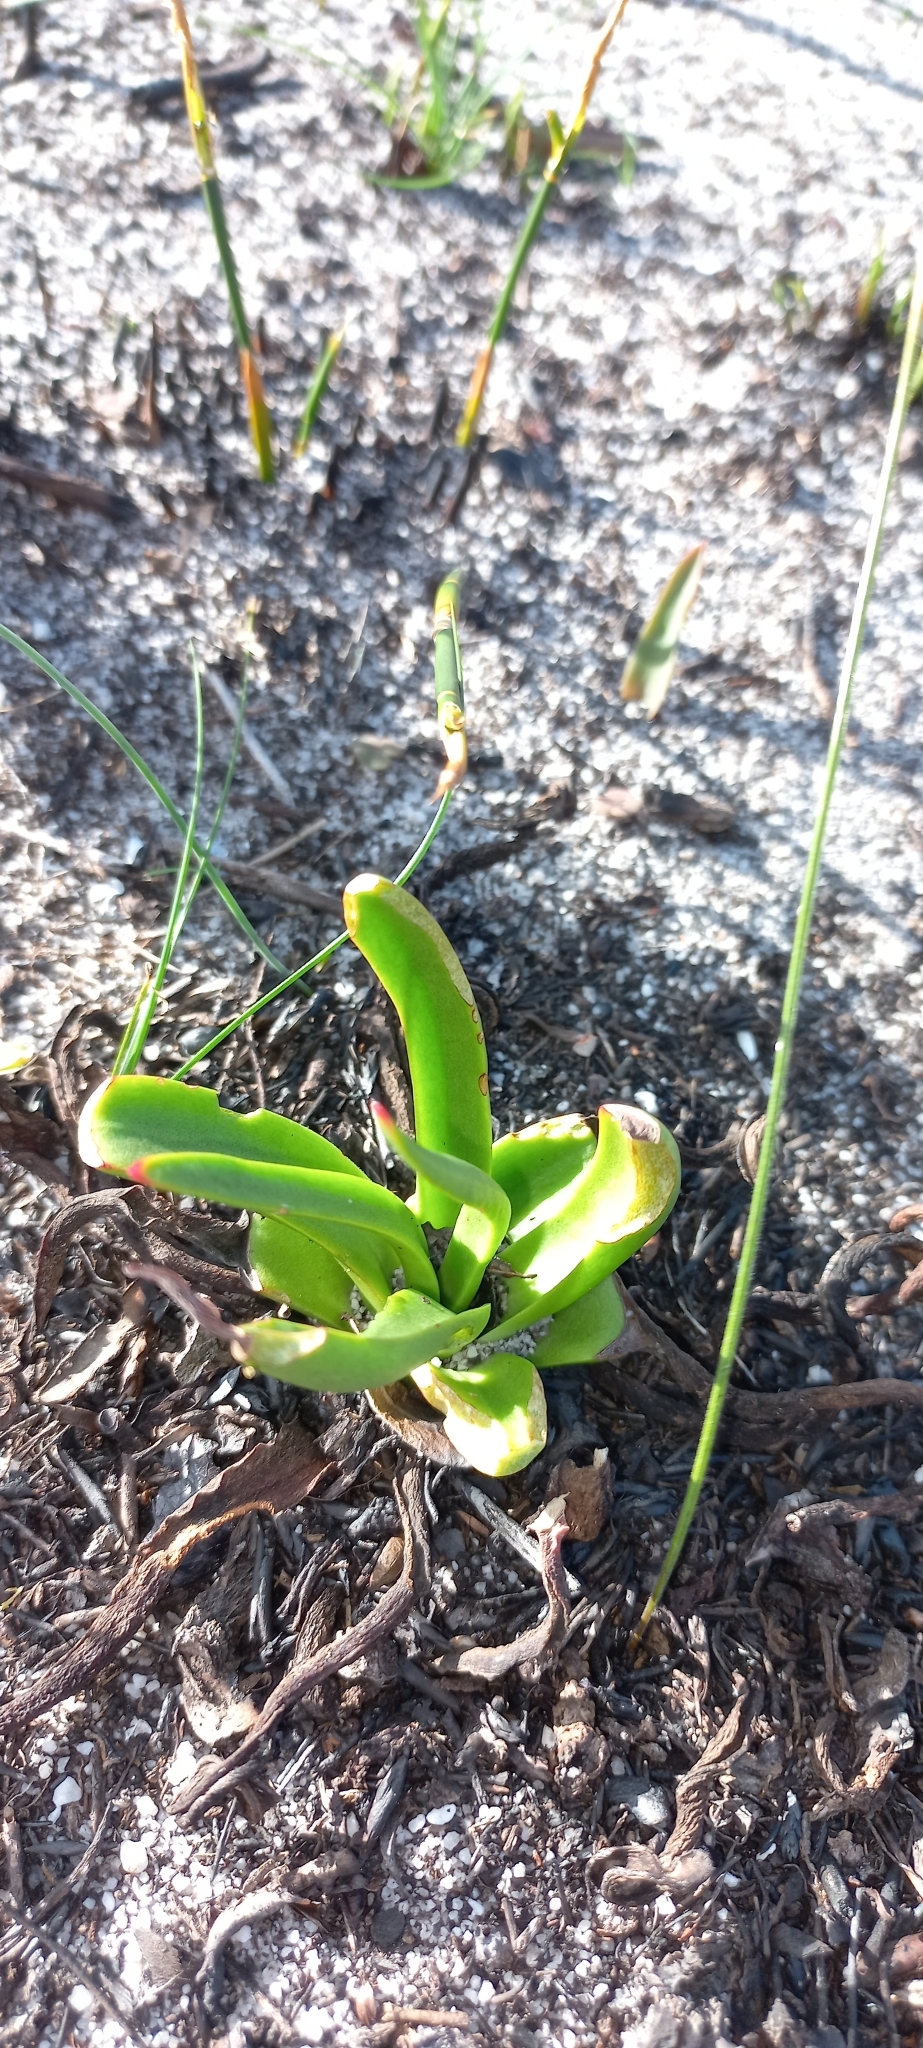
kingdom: Plantae
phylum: Tracheophyta
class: Magnoliopsida
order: Saxifragales
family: Crassulaceae
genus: Crassula
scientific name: Crassula nudicaulis
